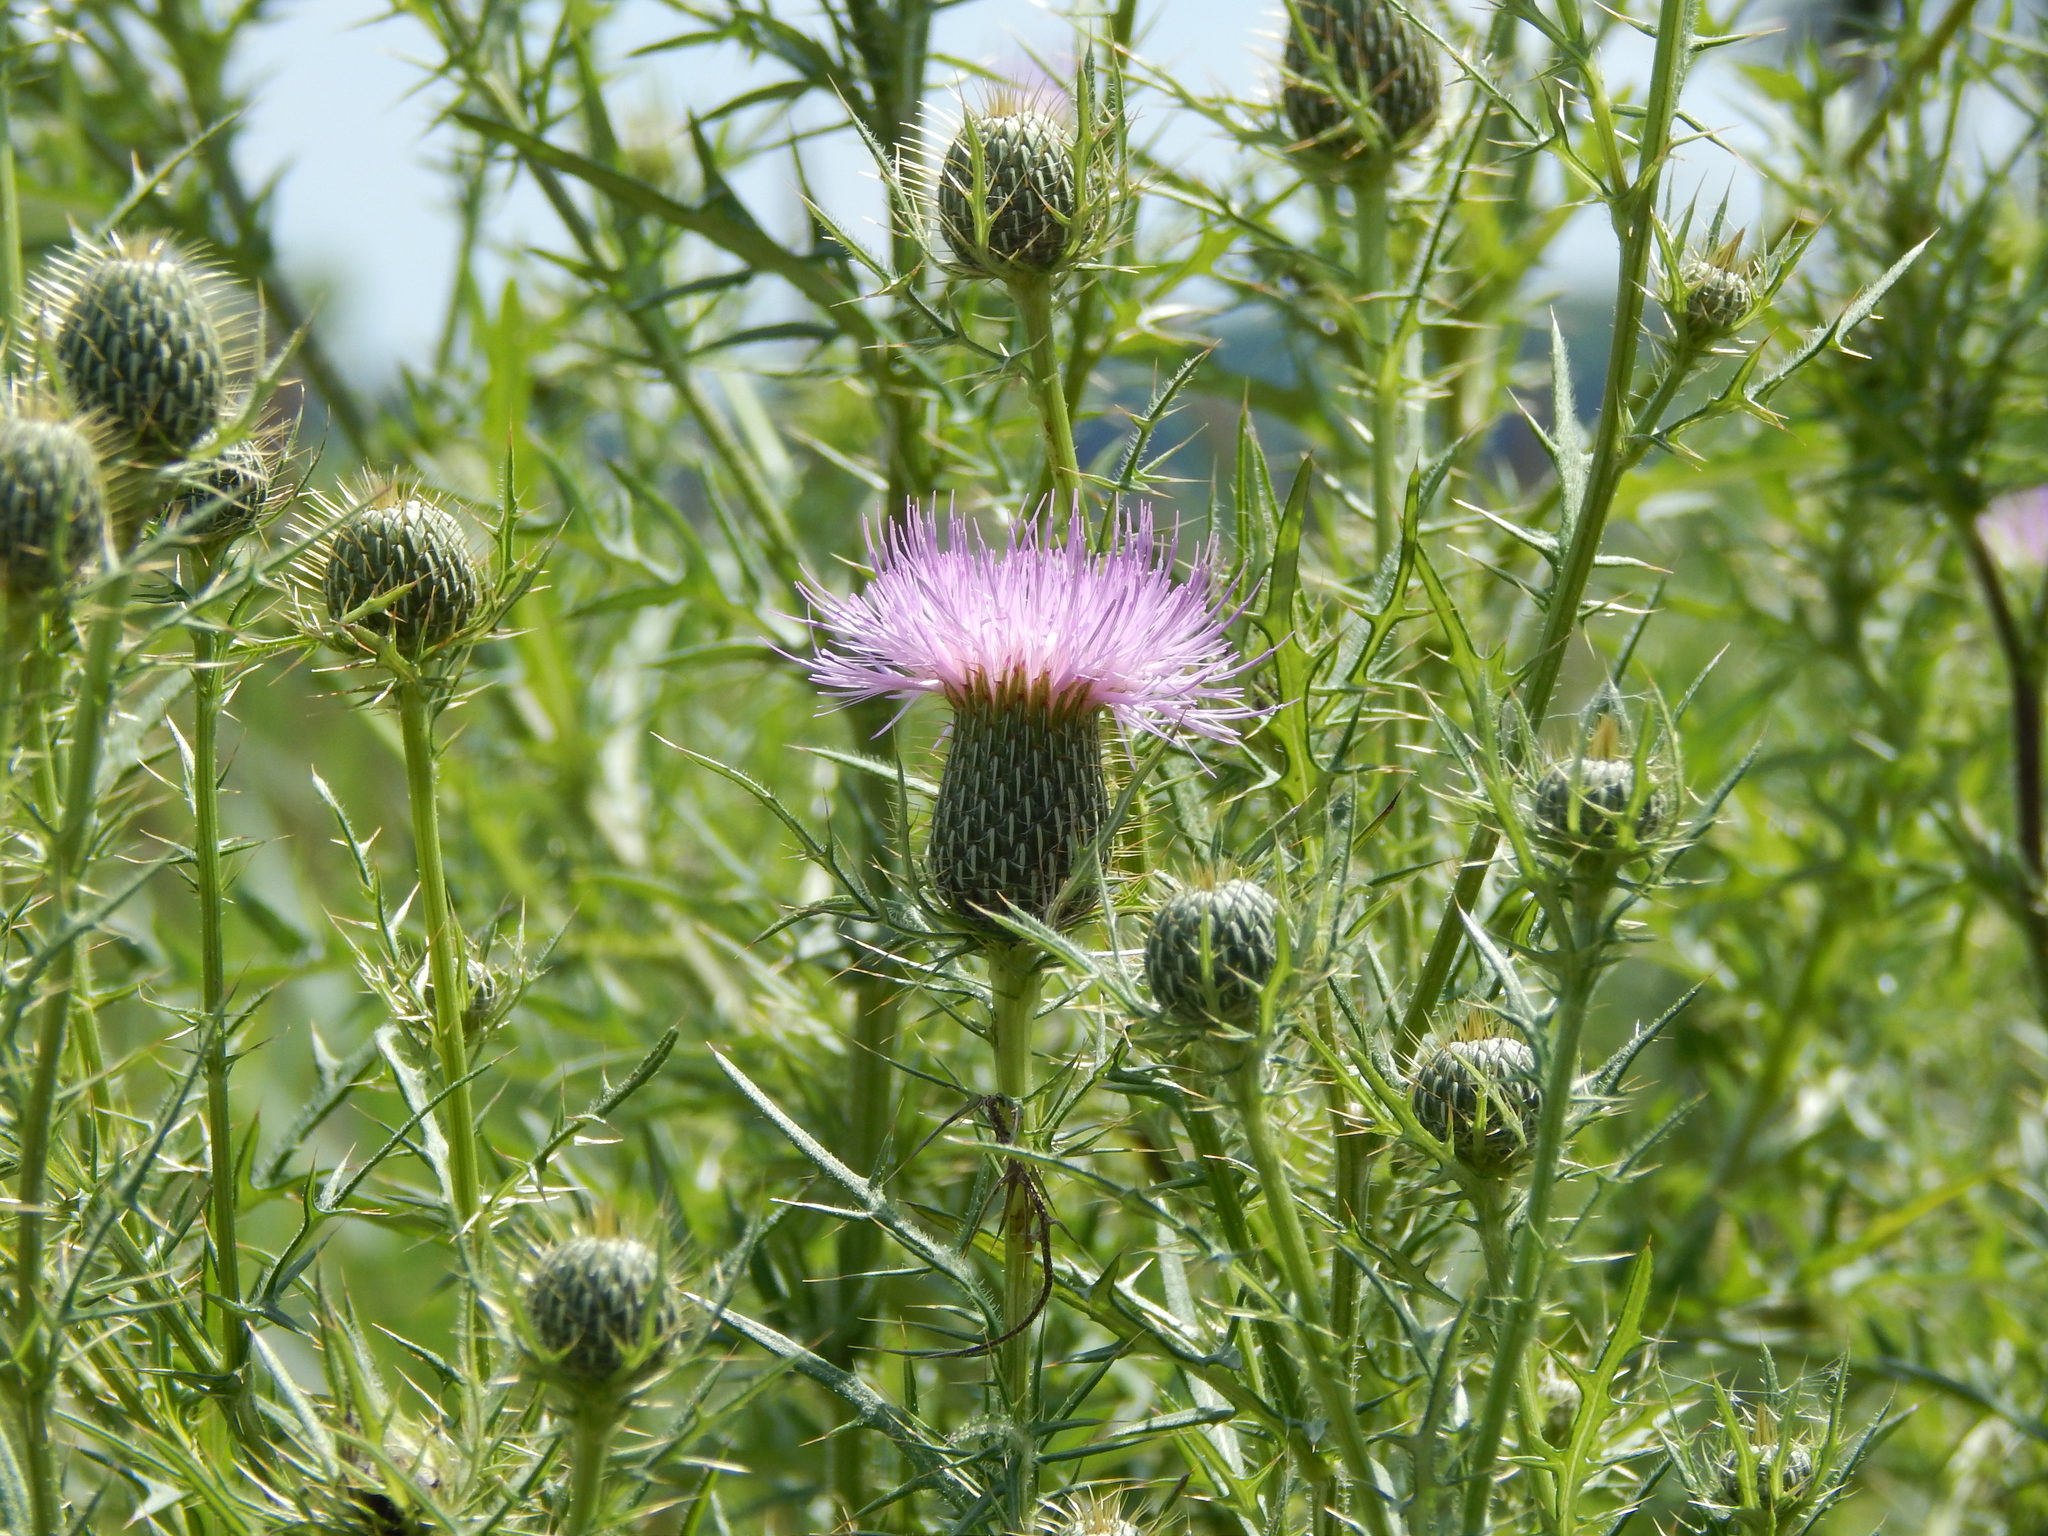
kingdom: Plantae
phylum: Tracheophyta
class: Magnoliopsida
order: Asterales
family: Asteraceae
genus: Cirsium
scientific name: Cirsium
